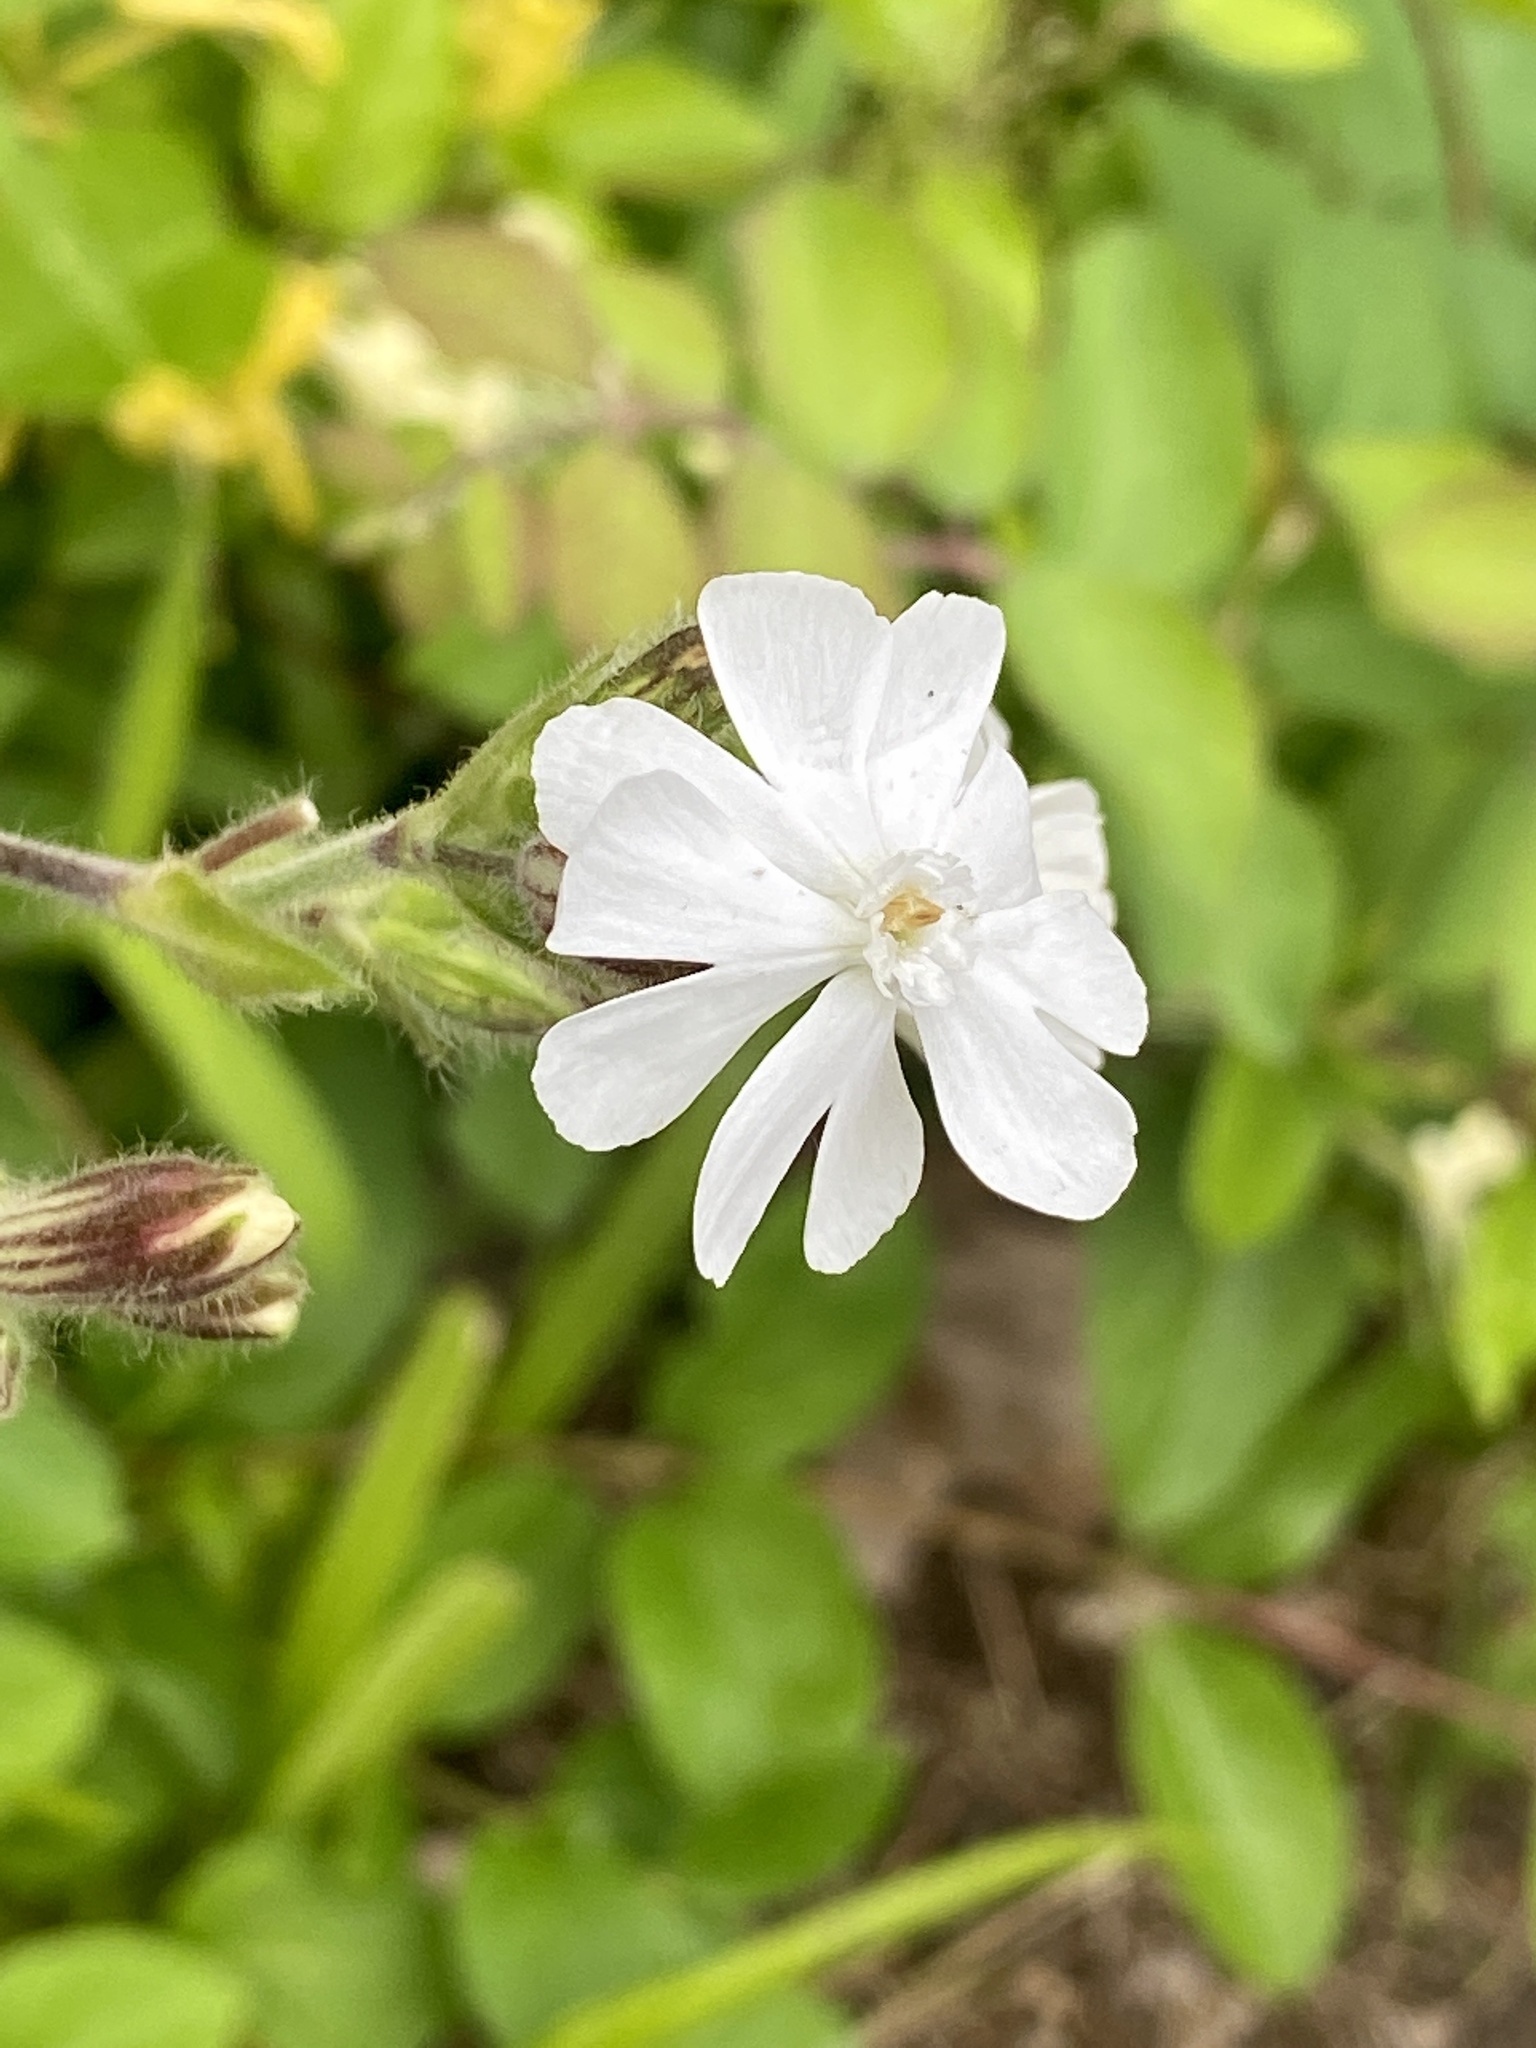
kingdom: Plantae
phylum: Tracheophyta
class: Magnoliopsida
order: Caryophyllales
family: Caryophyllaceae
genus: Silene
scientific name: Silene latifolia
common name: White campion
